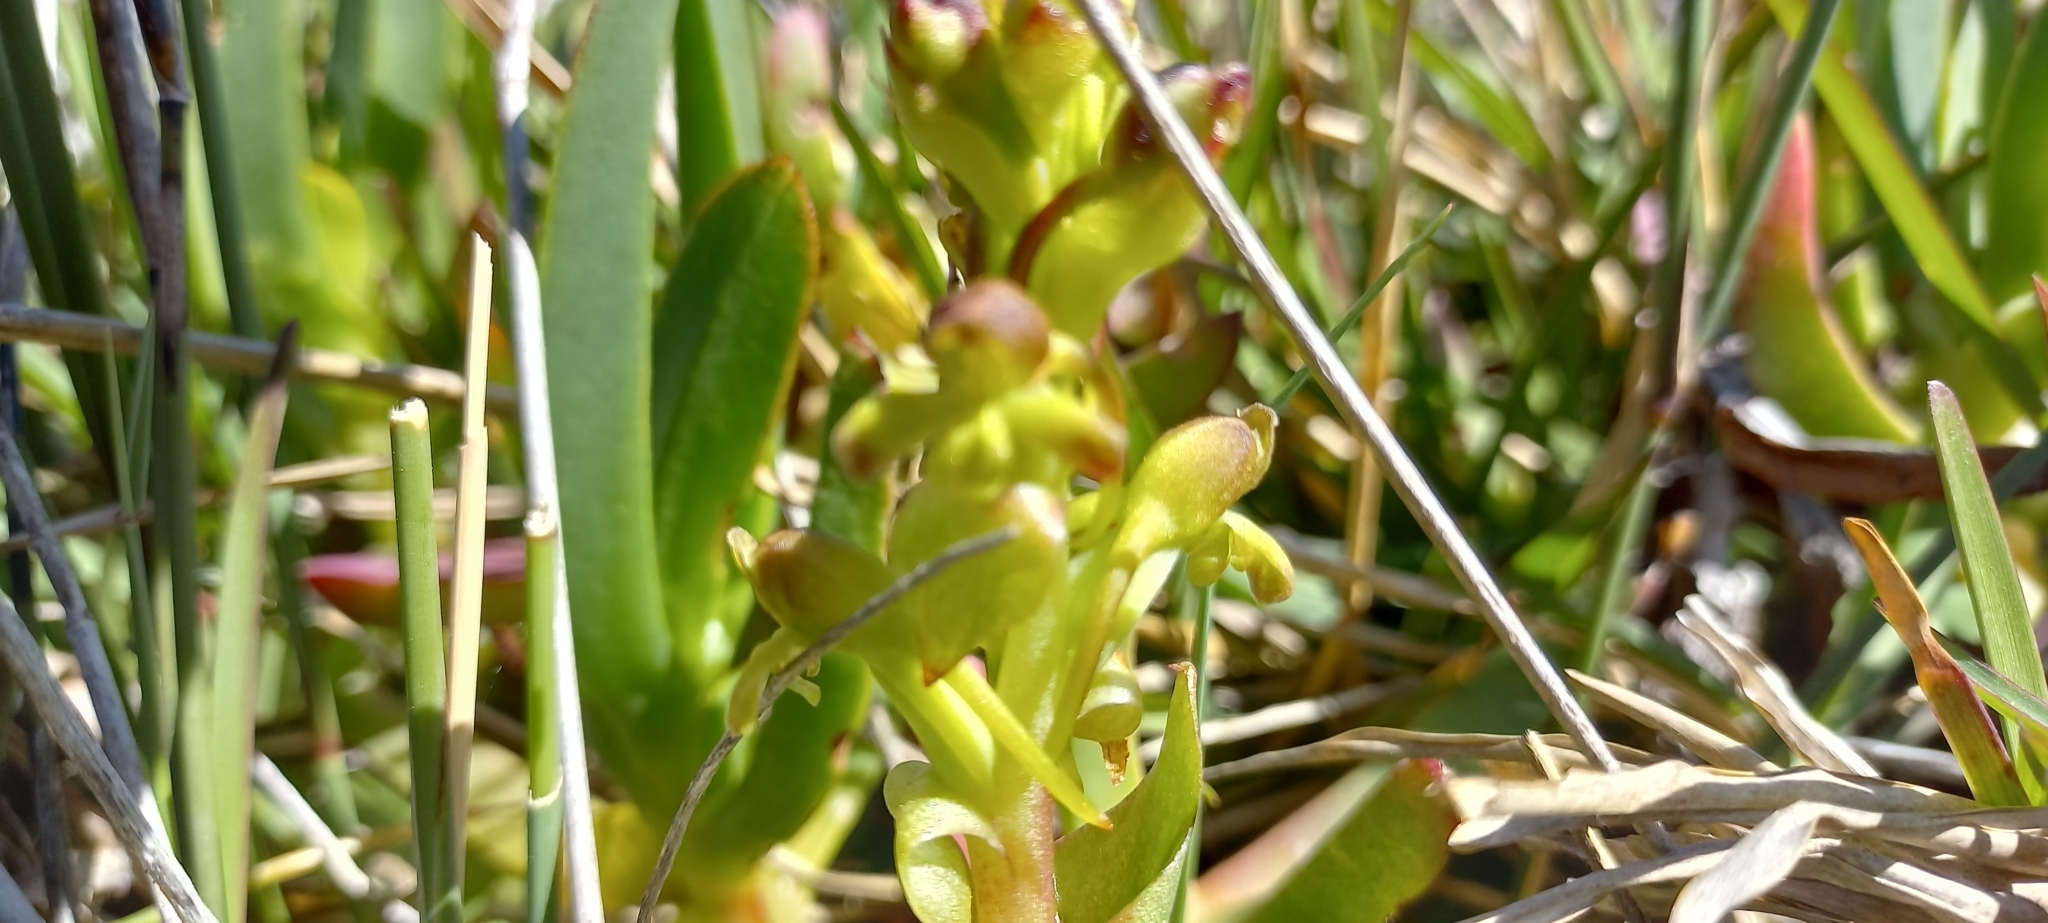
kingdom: Plantae
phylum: Tracheophyta
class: Liliopsida
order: Asparagales
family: Orchidaceae
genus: Satyrium
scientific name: Satyrium odorum
